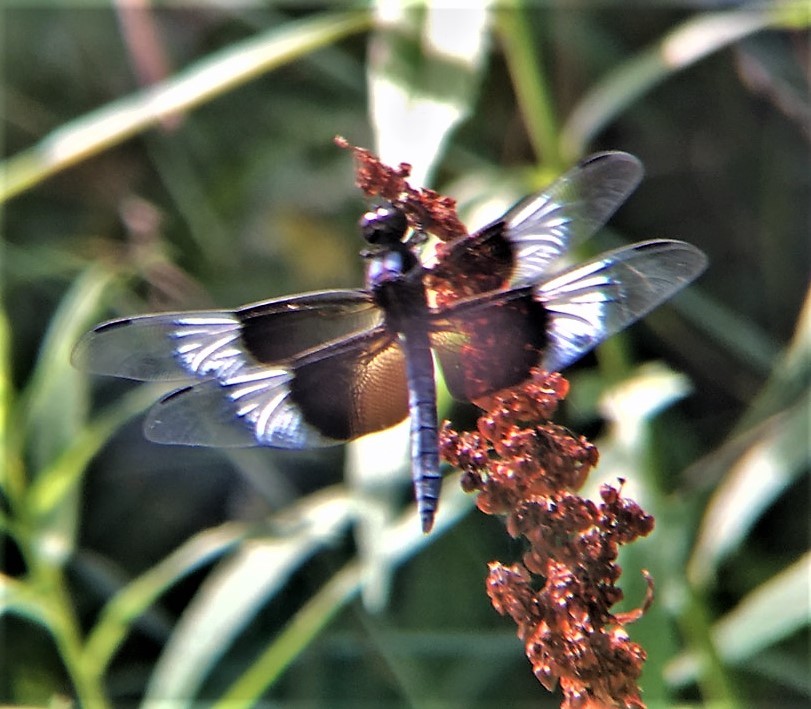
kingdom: Animalia
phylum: Arthropoda
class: Insecta
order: Odonata
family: Libellulidae
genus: Libellula
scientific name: Libellula luctuosa
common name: Widow skimmer
